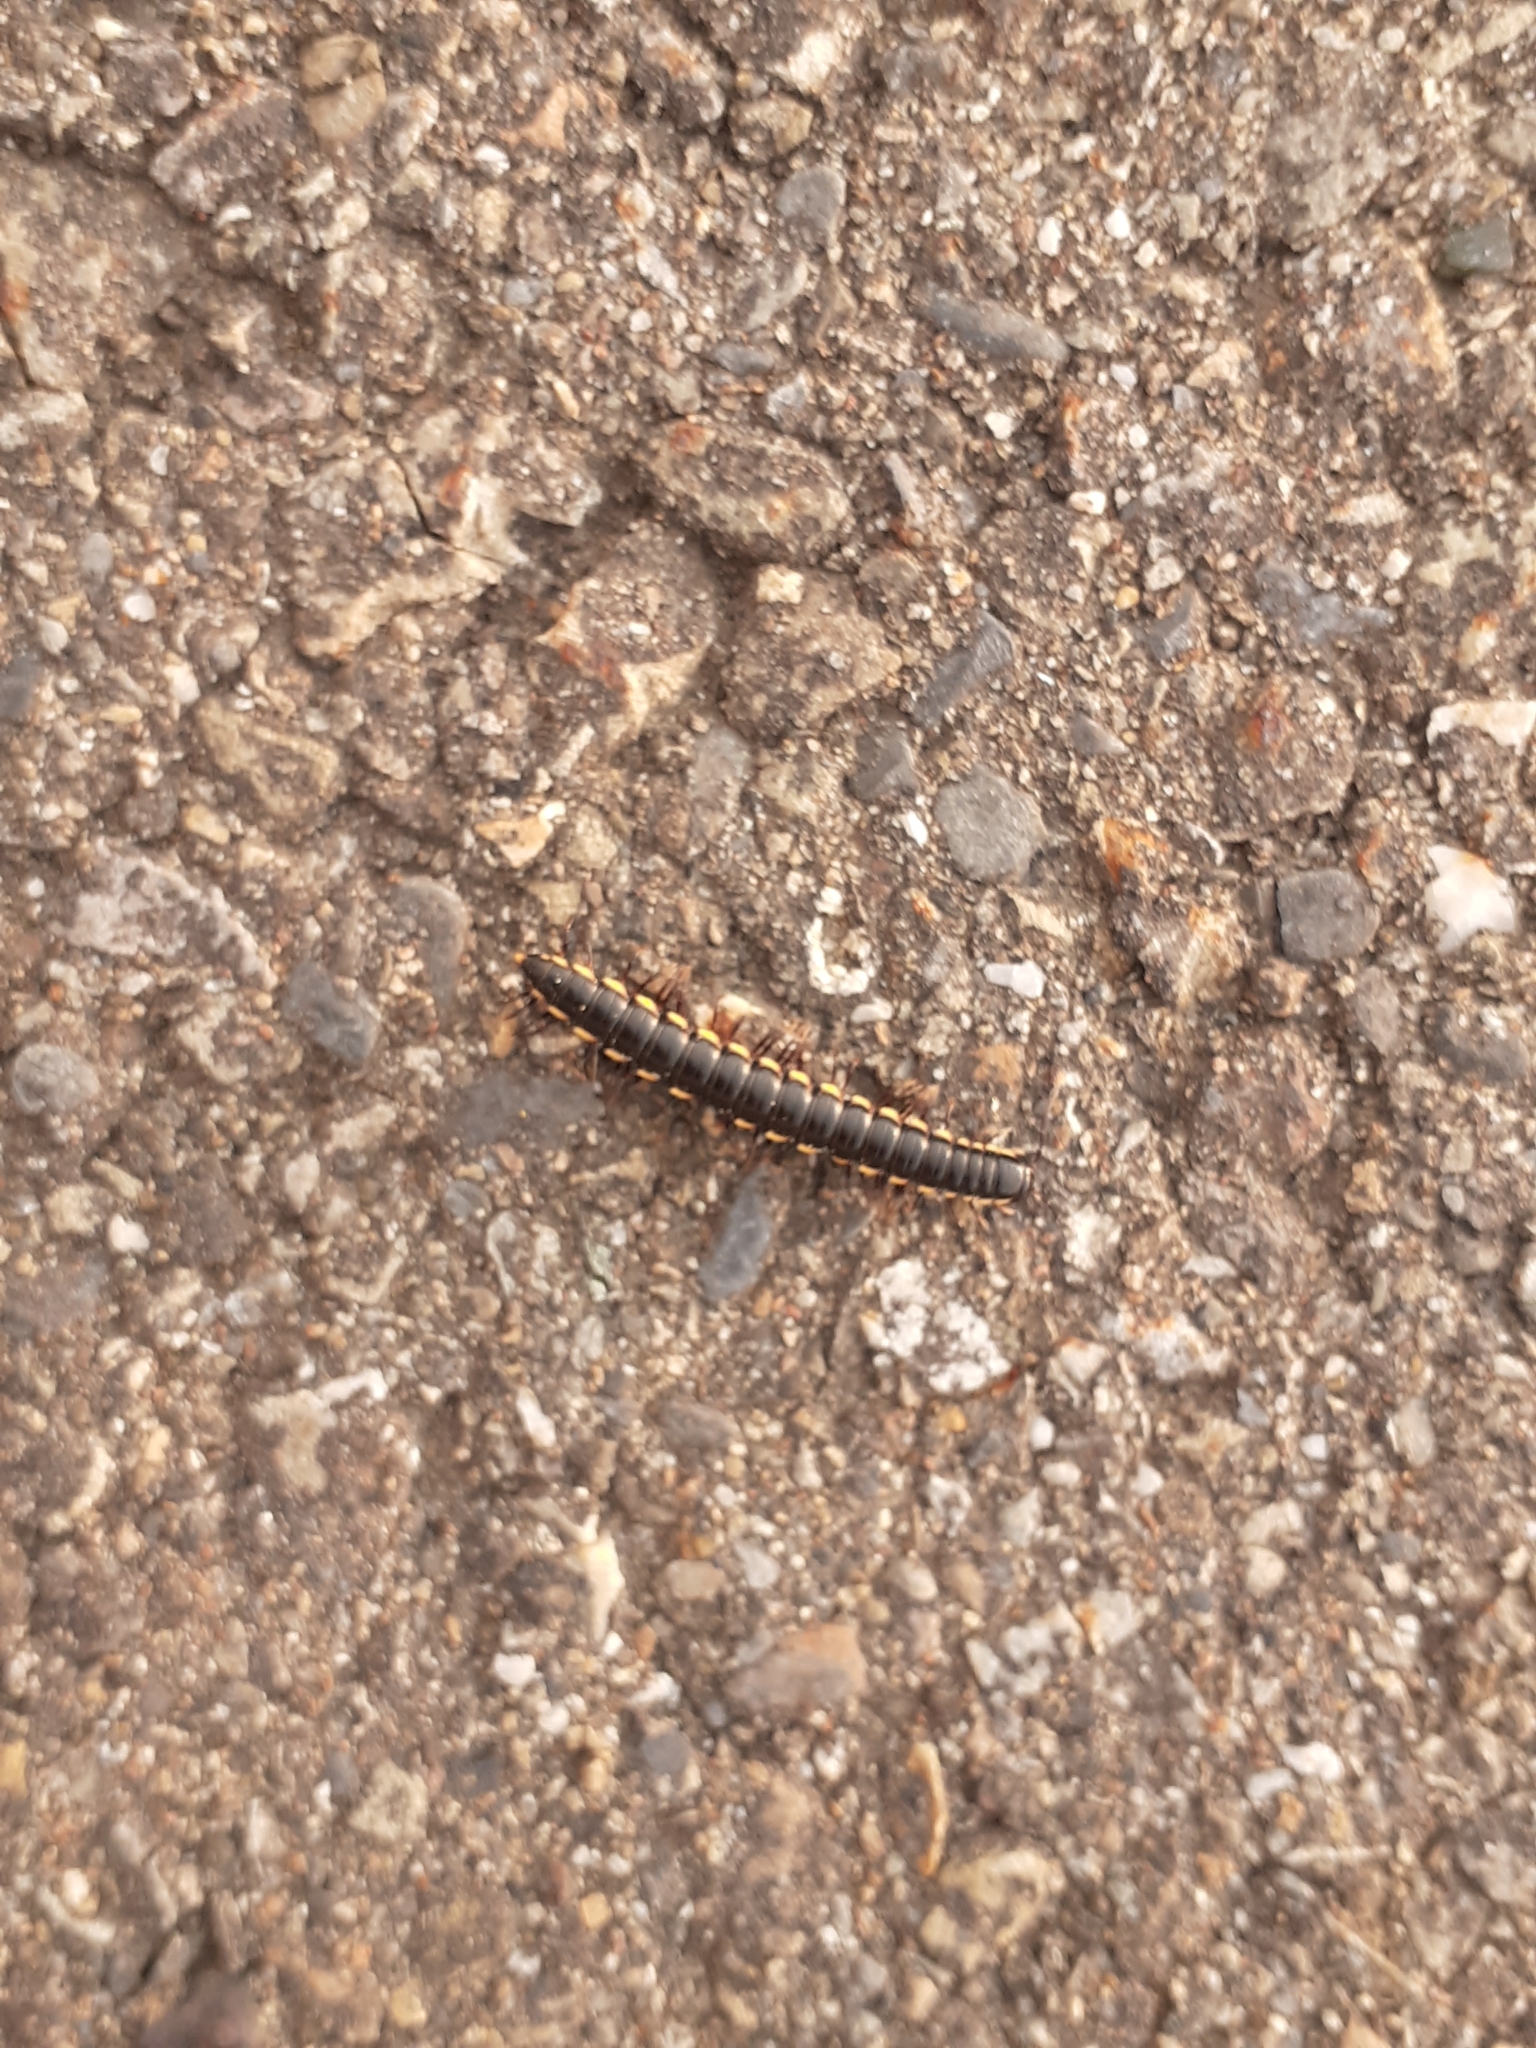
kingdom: Animalia
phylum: Arthropoda
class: Diplopoda
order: Polydesmida
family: Paradoxosomatidae
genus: Orthomorphella
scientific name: Orthomorphella pekuensis
